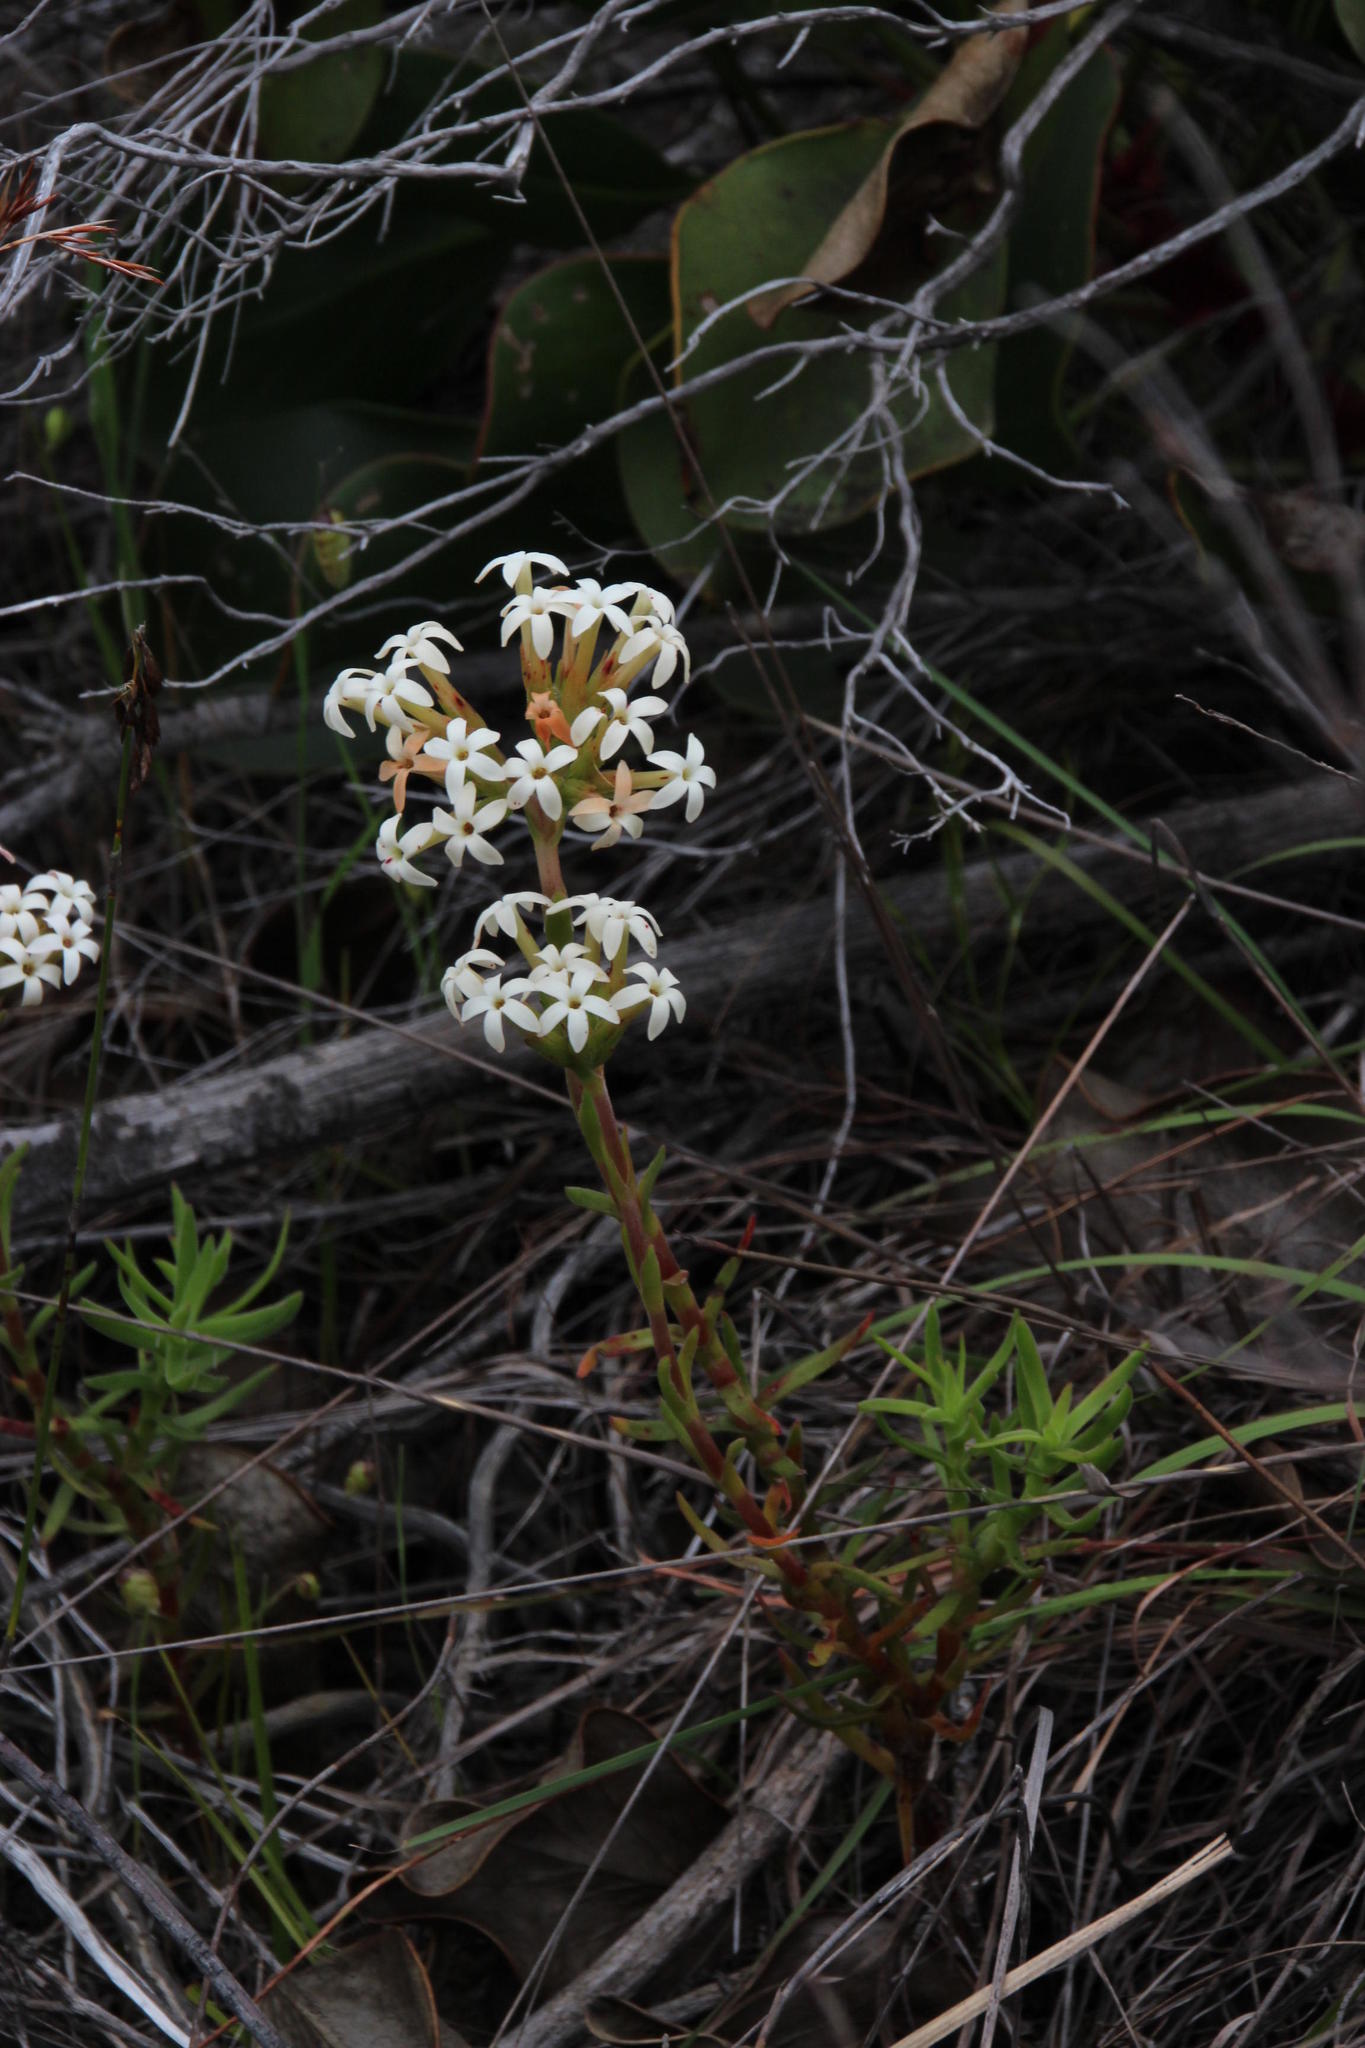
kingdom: Plantae
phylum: Tracheophyta
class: Magnoliopsida
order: Saxifragales
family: Crassulaceae
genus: Crassula
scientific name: Crassula fascicularis
